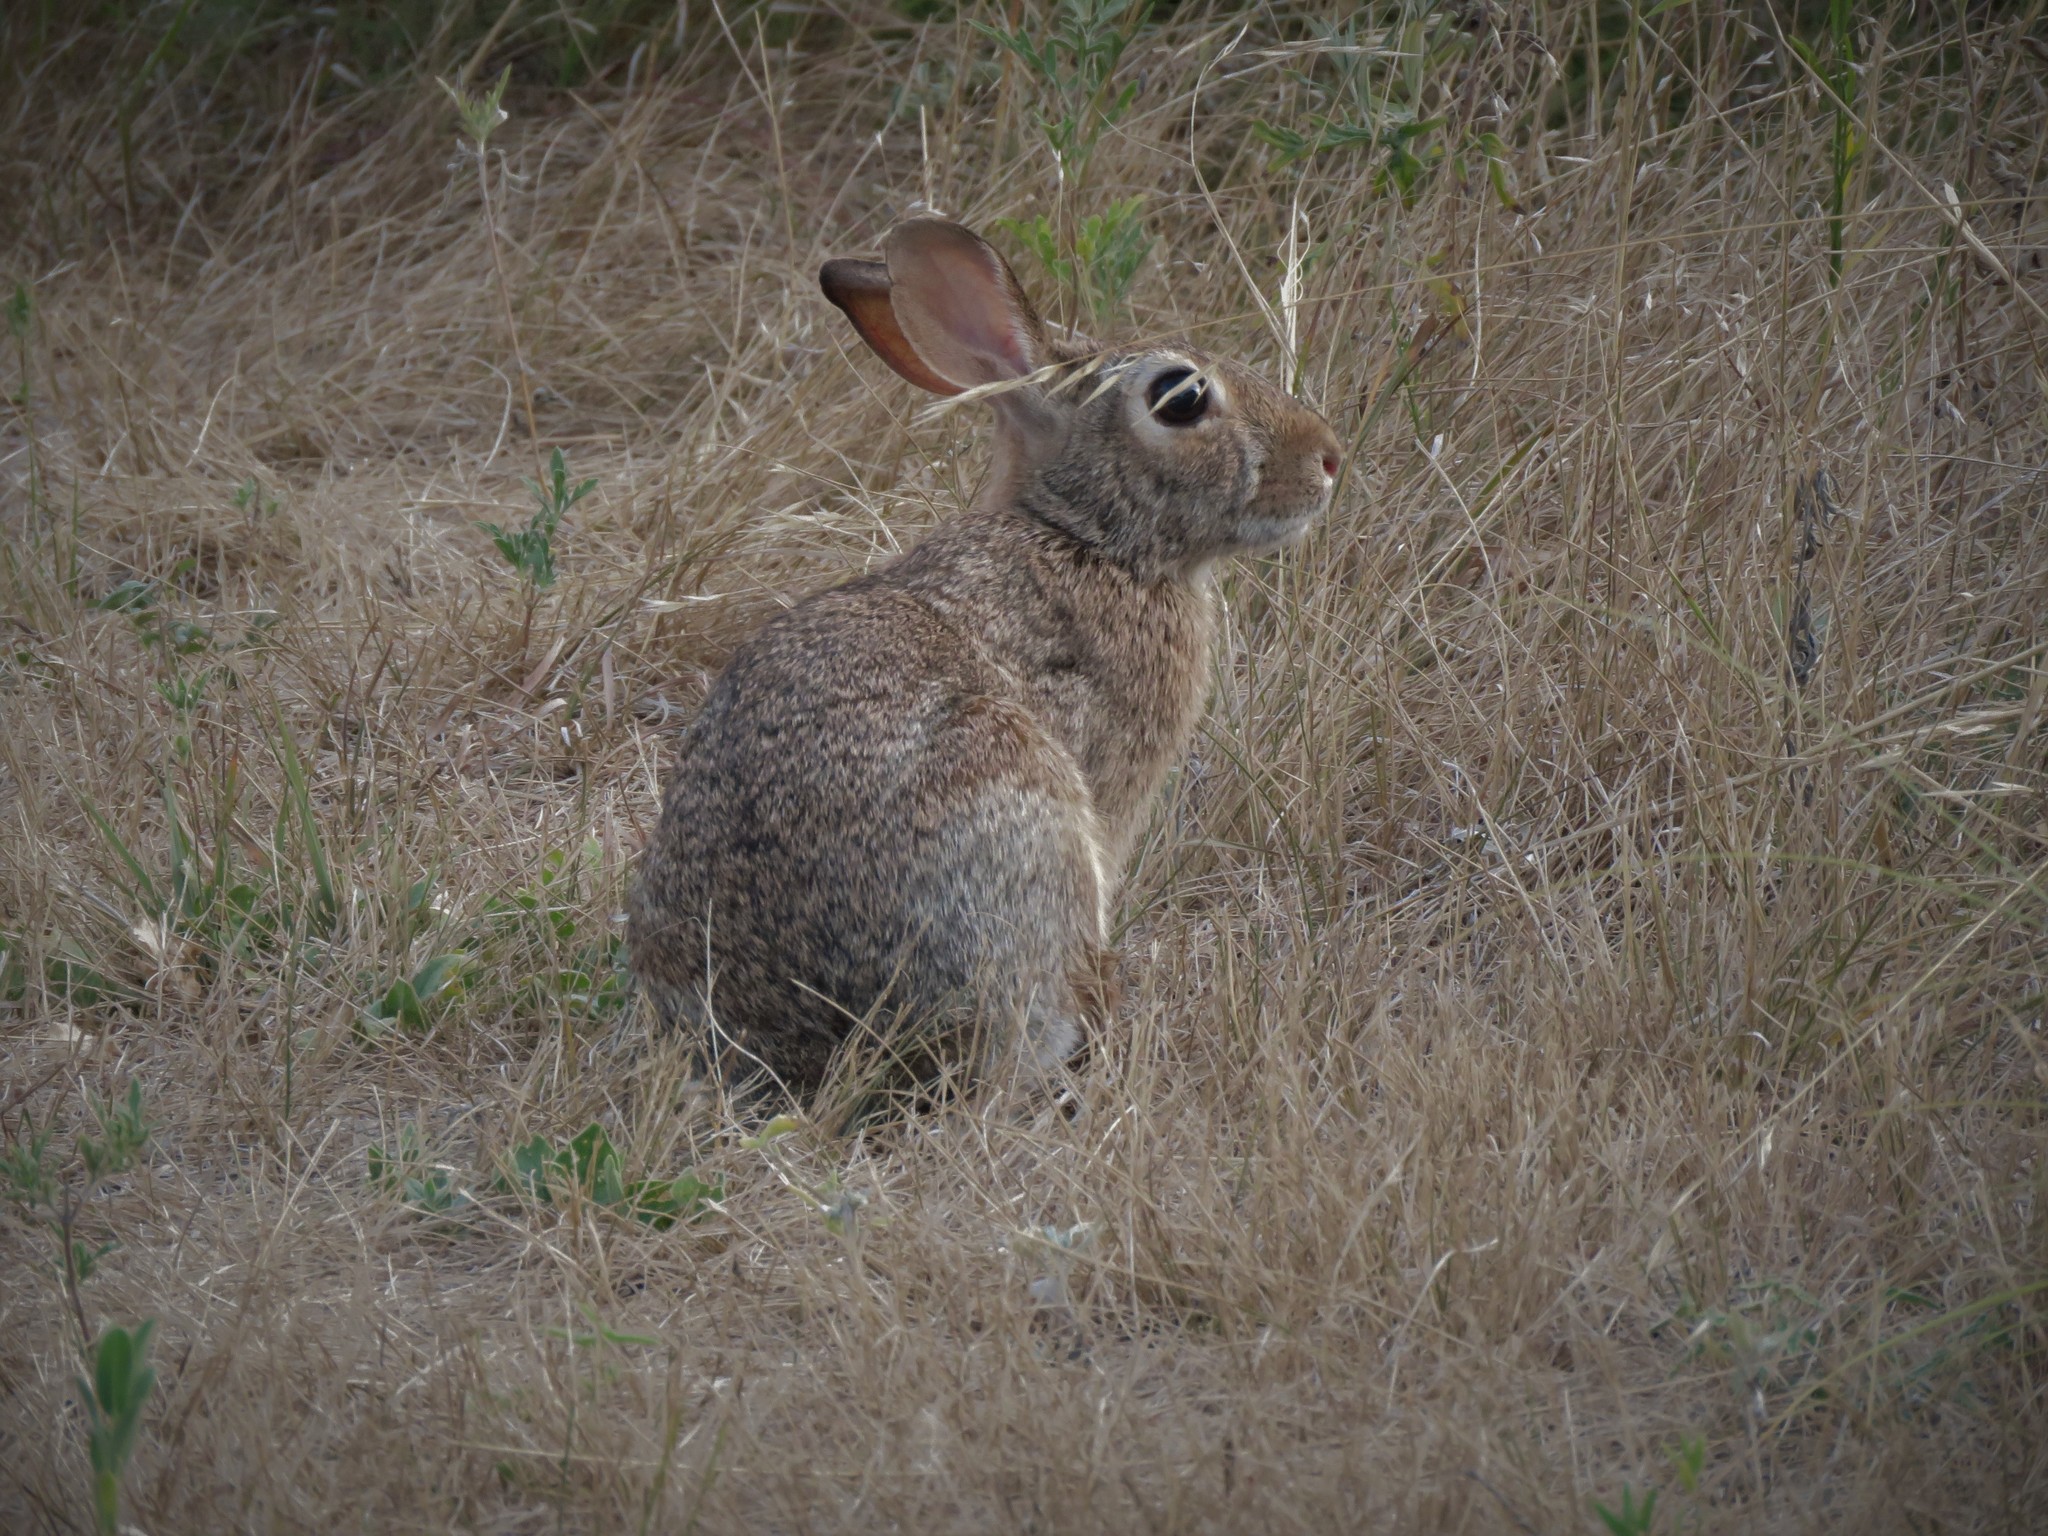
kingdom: Animalia
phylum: Chordata
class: Mammalia
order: Lagomorpha
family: Leporidae
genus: Sylvilagus
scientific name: Sylvilagus floridanus
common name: Eastern cottontail
